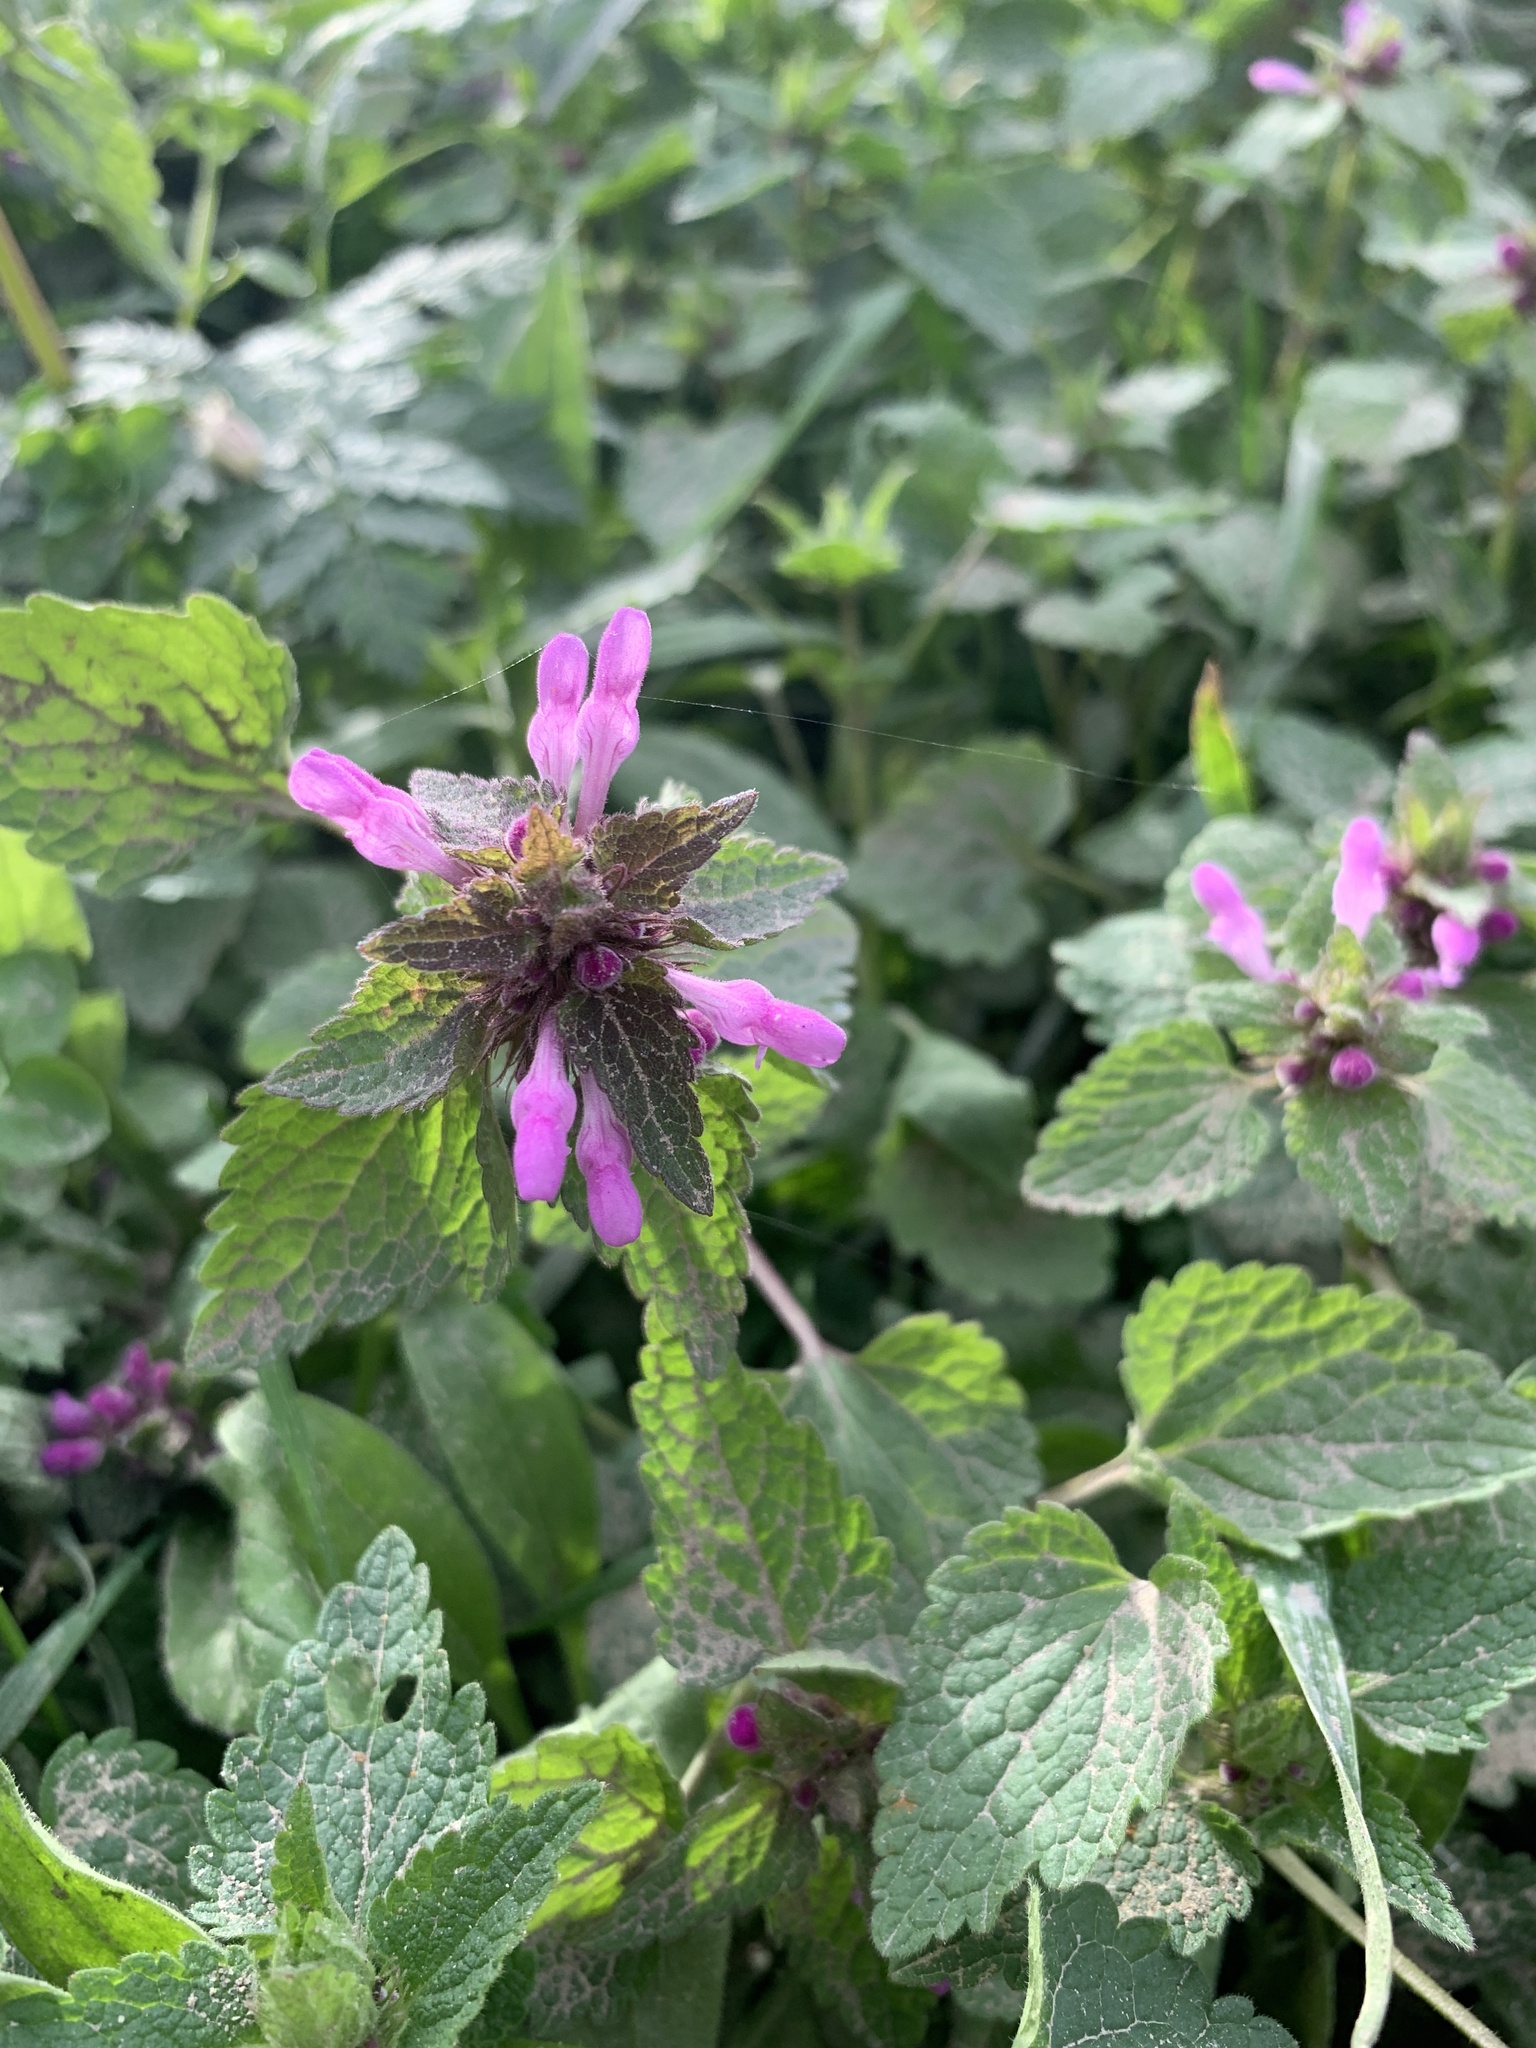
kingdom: Plantae
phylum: Tracheophyta
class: Magnoliopsida
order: Lamiales
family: Lamiaceae
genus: Lamium
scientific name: Lamium purpureum
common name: Red dead-nettle
